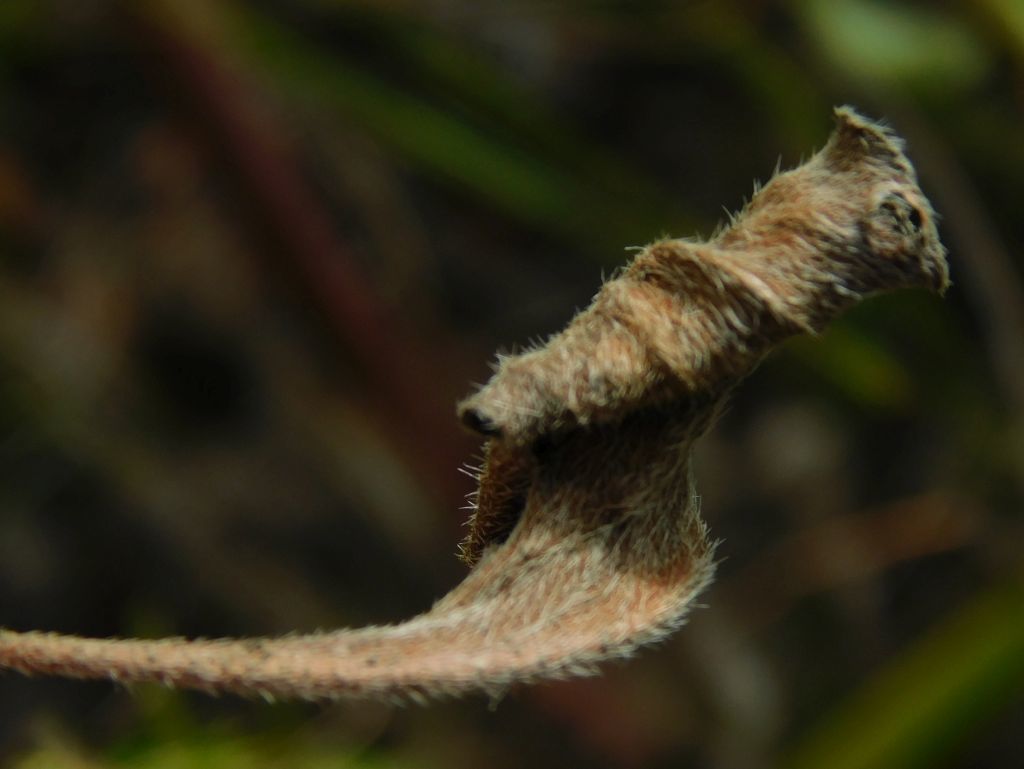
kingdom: Plantae
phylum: Tracheophyta
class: Magnoliopsida
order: Geraniales
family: Geraniaceae
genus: Pelargonium
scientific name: Pelargonium proliferum
